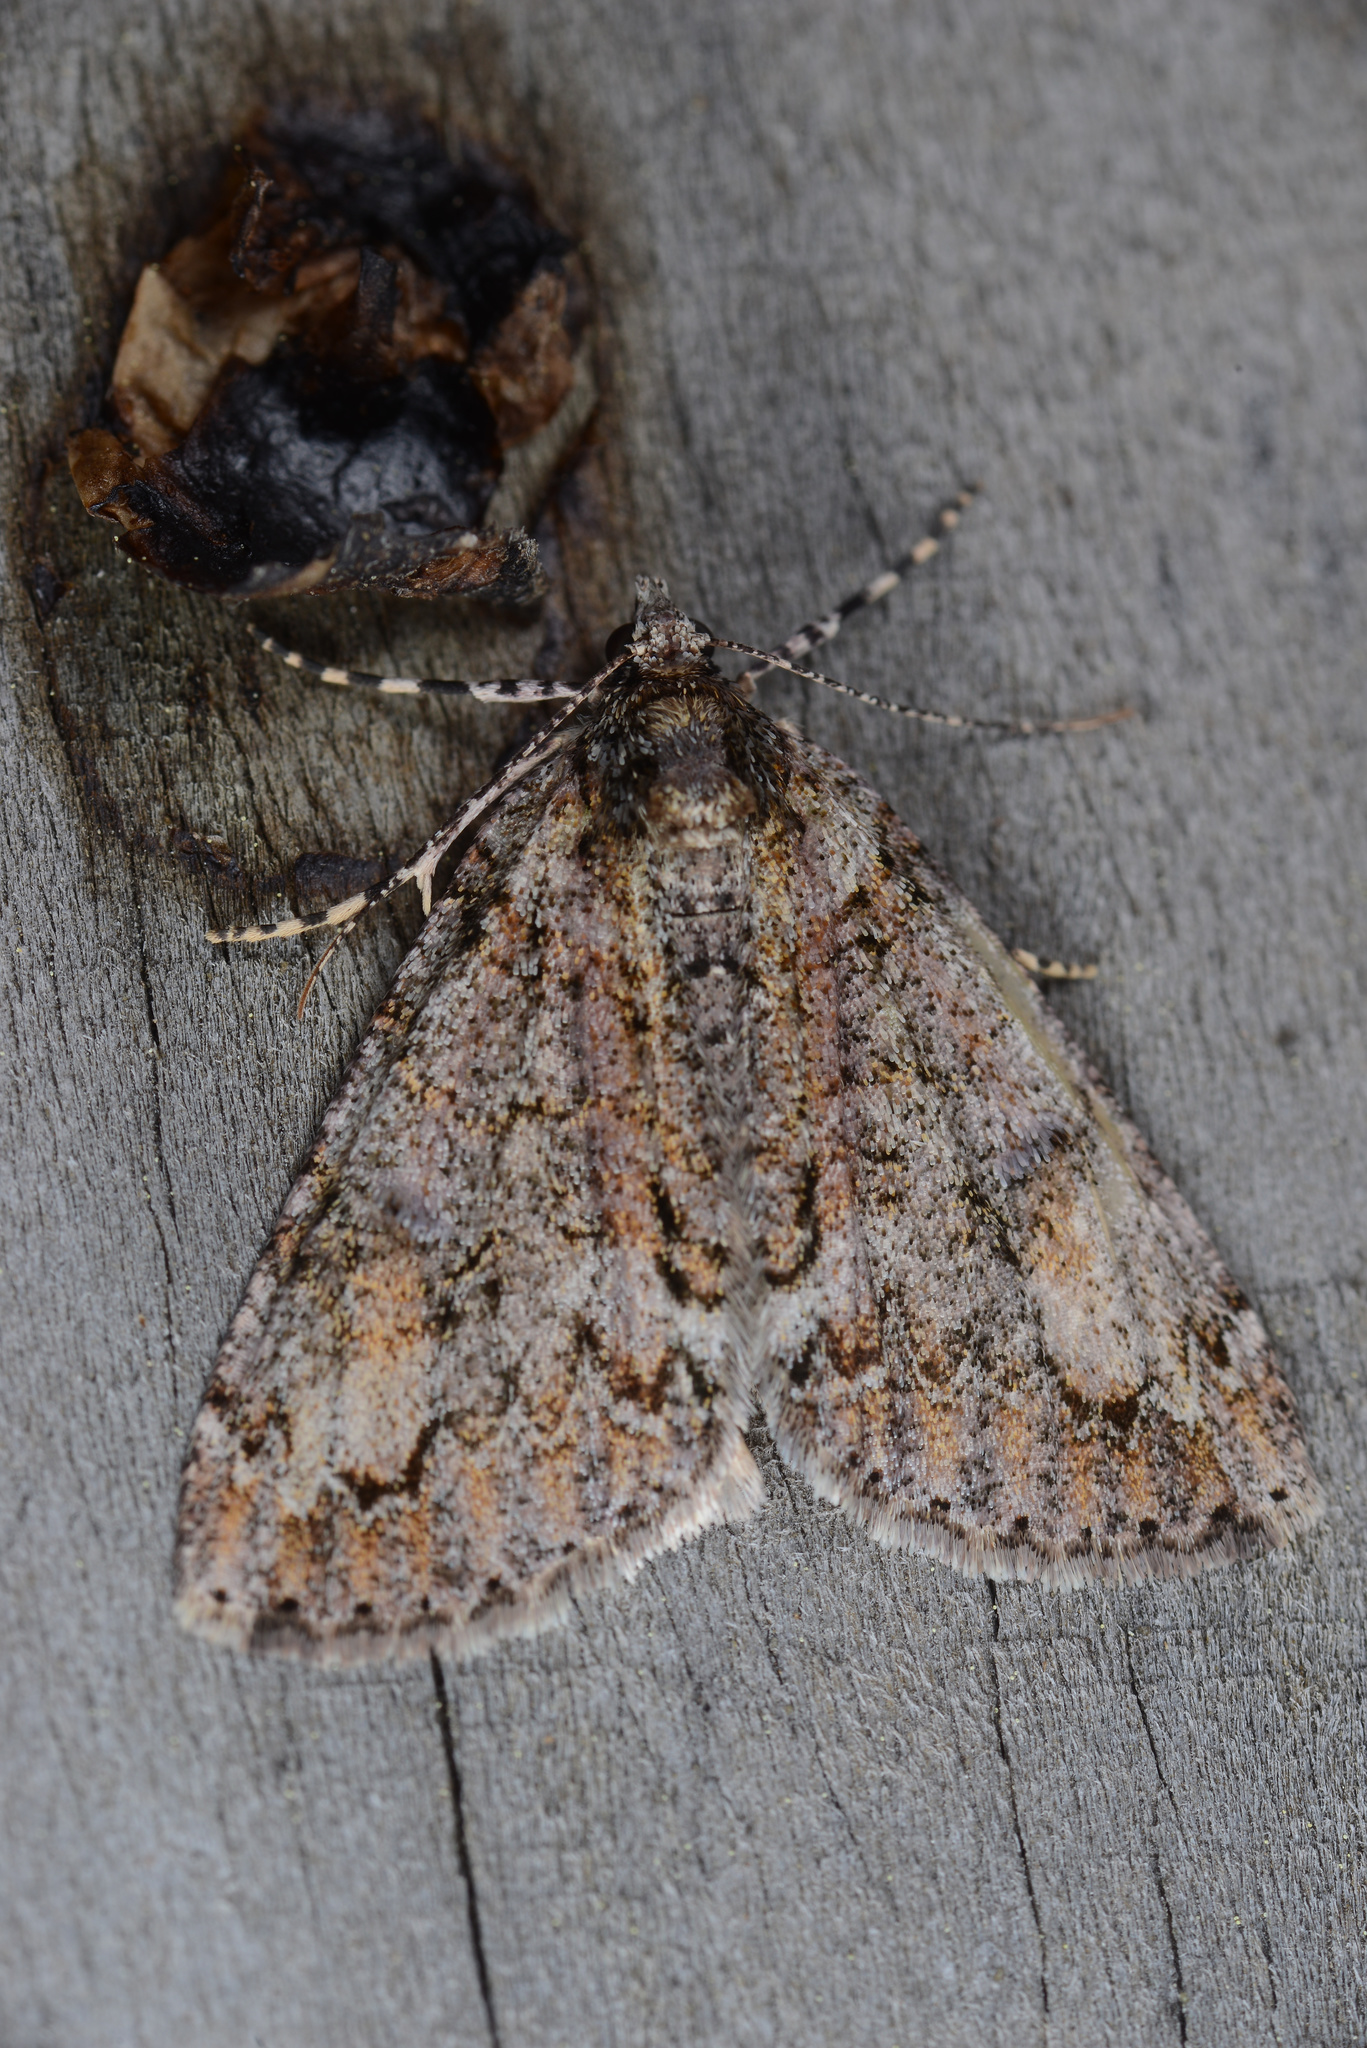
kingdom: Animalia
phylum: Arthropoda
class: Insecta
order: Lepidoptera
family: Geometridae
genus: Pseudocoremia
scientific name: Pseudocoremia suavis
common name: Common forest looper
